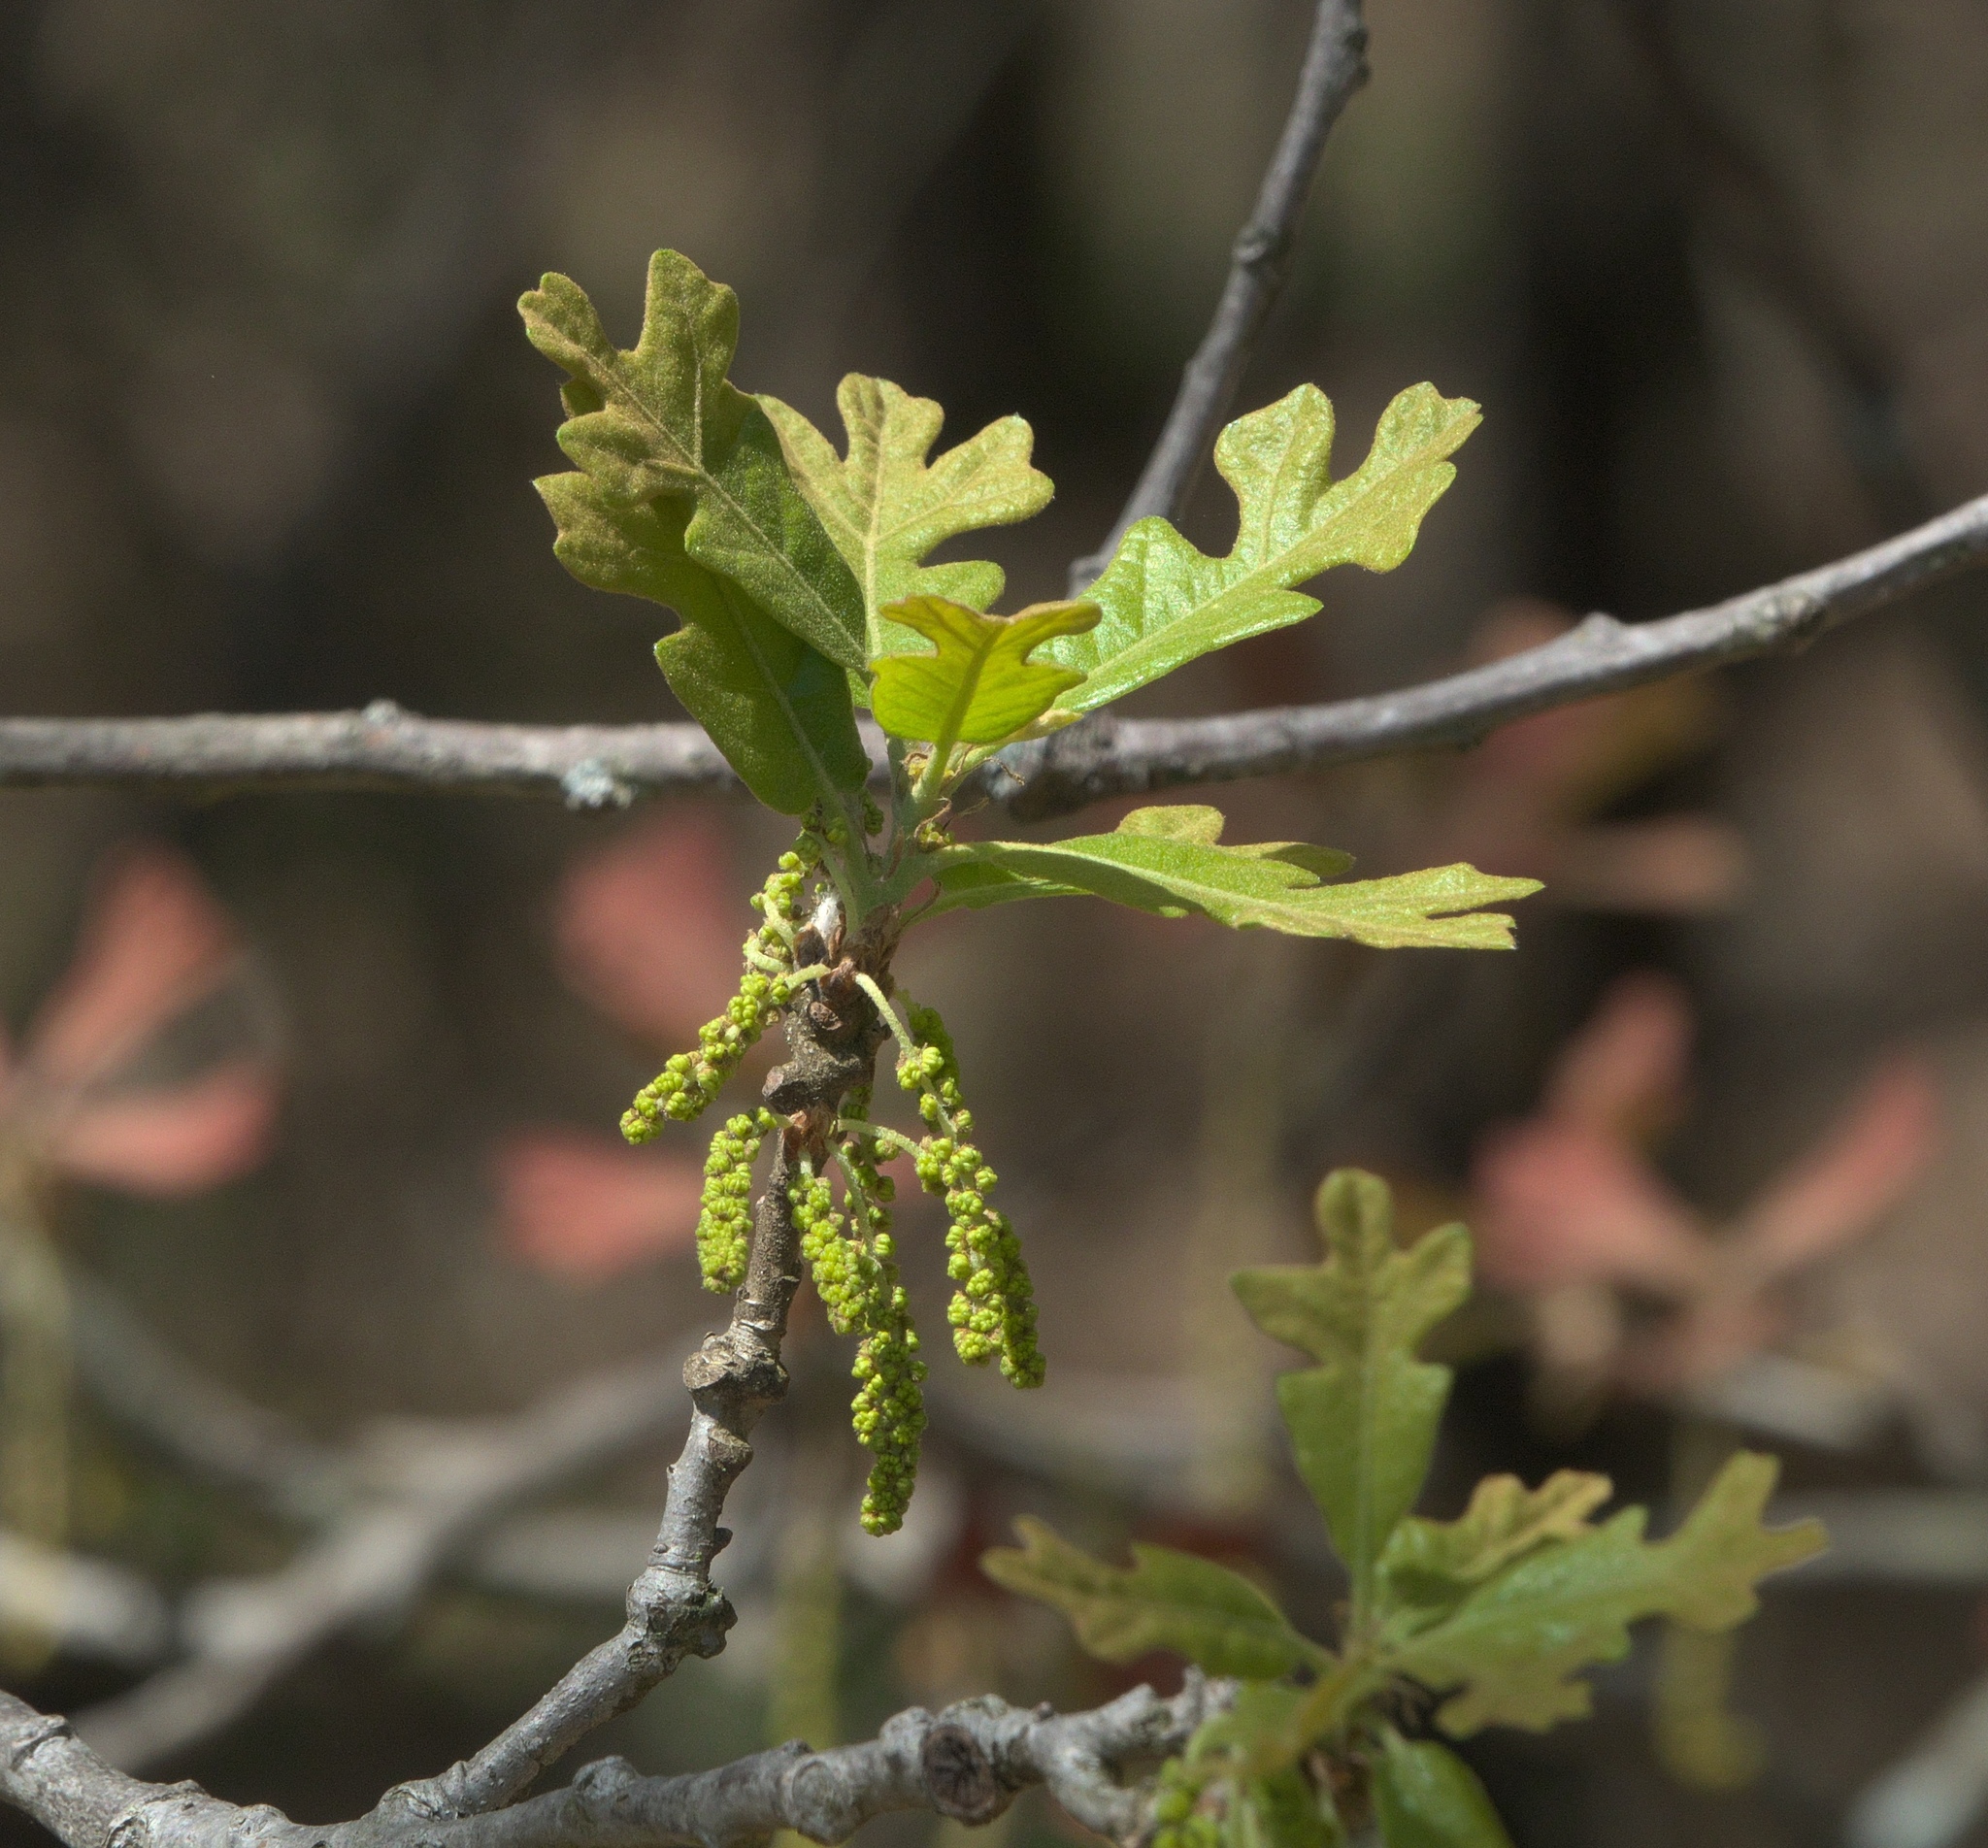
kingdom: Plantae
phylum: Tracheophyta
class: Magnoliopsida
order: Fagales
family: Fagaceae
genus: Quercus
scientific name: Quercus stellata
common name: Post oak
